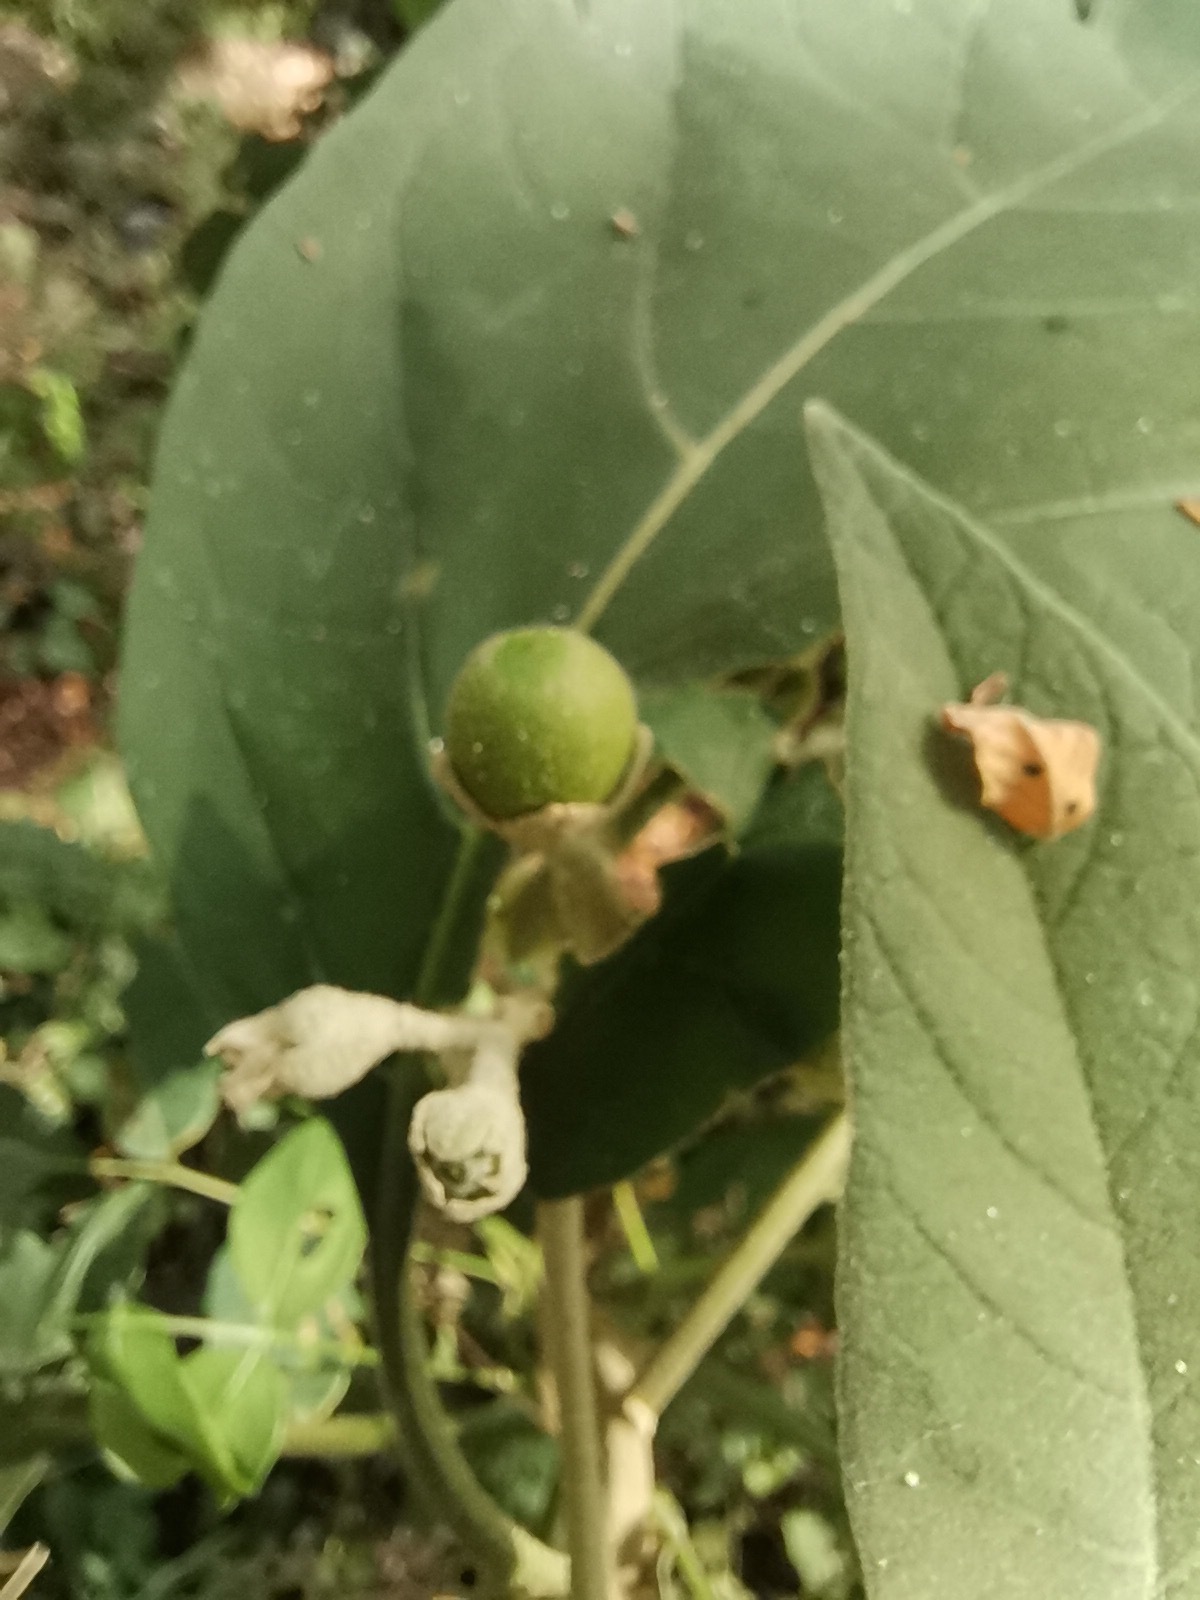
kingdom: Plantae
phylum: Tracheophyta
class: Magnoliopsida
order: Solanales
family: Solanaceae
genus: Solanum
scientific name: Solanum erianthum
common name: Tobacco-tree
